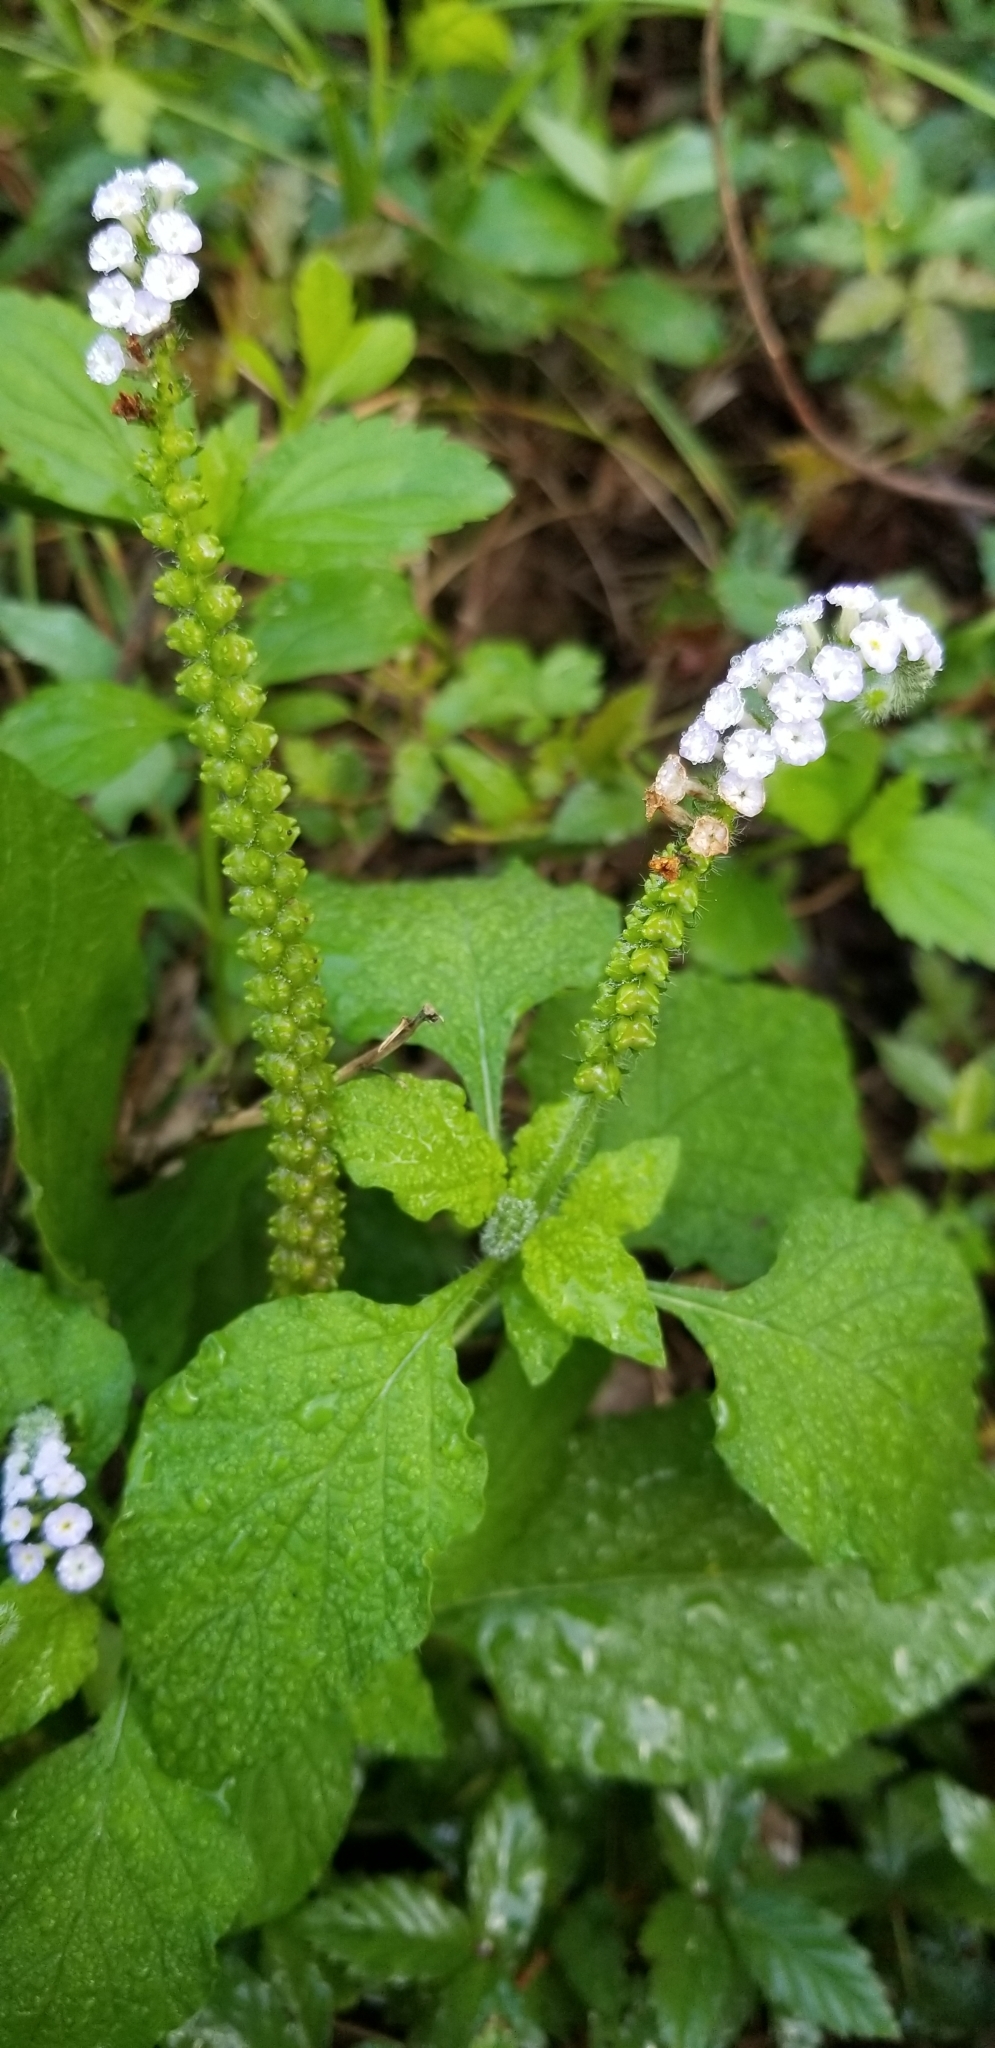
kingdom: Plantae
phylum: Tracheophyta
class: Magnoliopsida
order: Boraginales
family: Heliotropiaceae
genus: Heliotropium
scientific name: Heliotropium indicum
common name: Indian heliotrope
